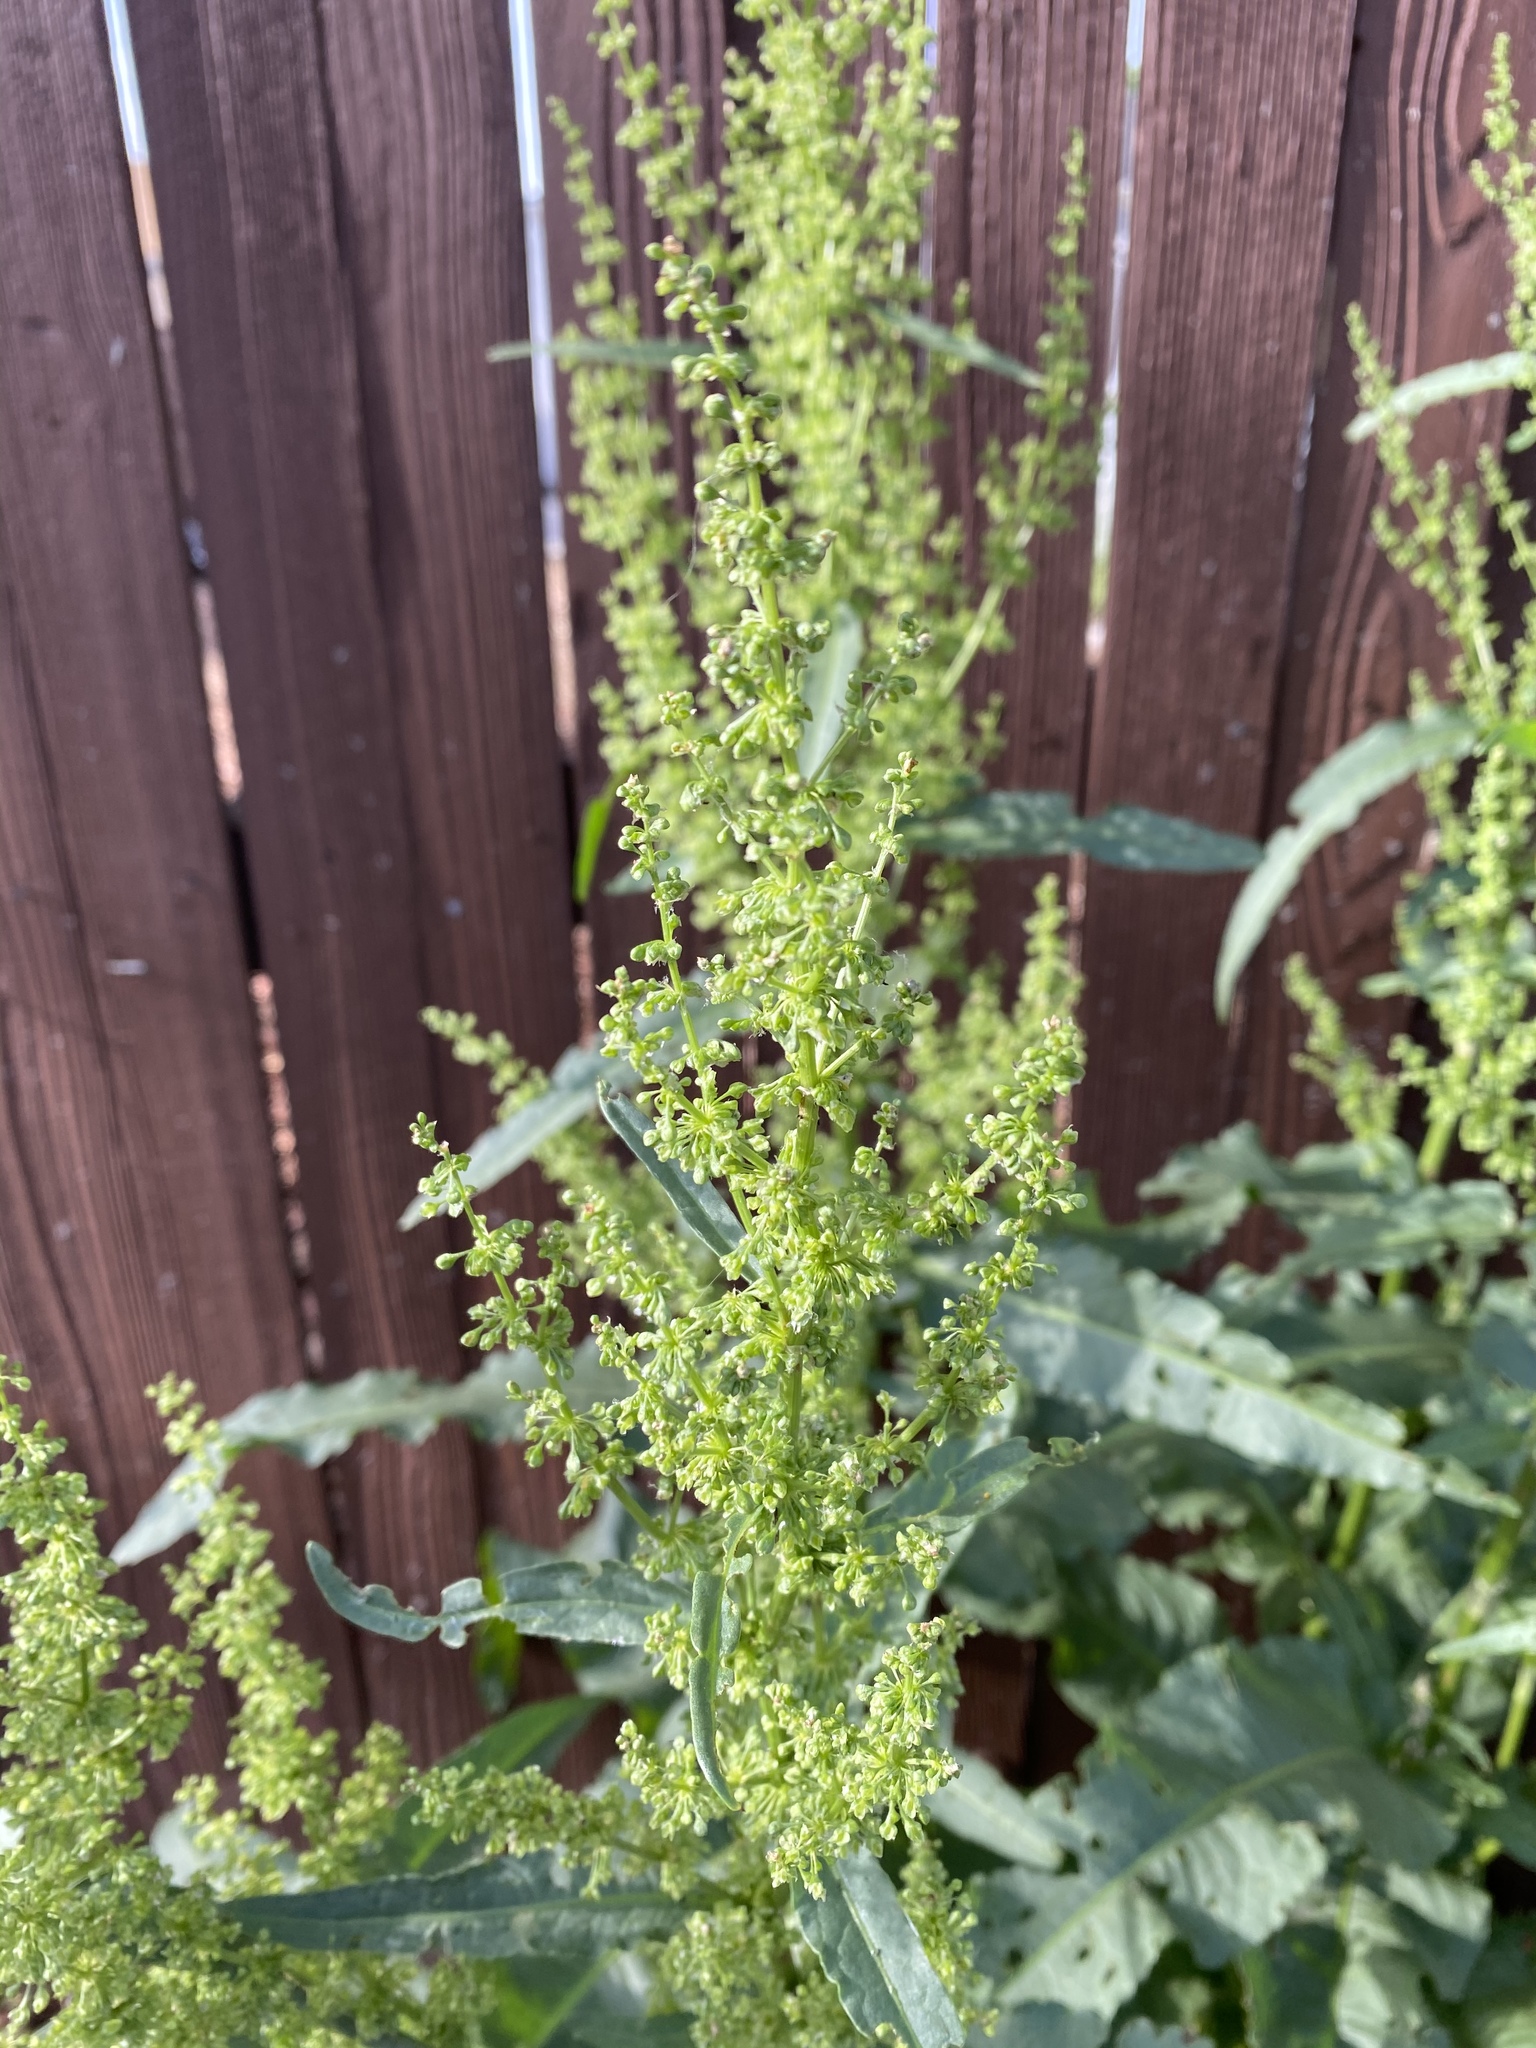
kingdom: Plantae
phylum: Tracheophyta
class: Magnoliopsida
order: Caryophyllales
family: Polygonaceae
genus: Rumex
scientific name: Rumex crispus
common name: Curled dock
